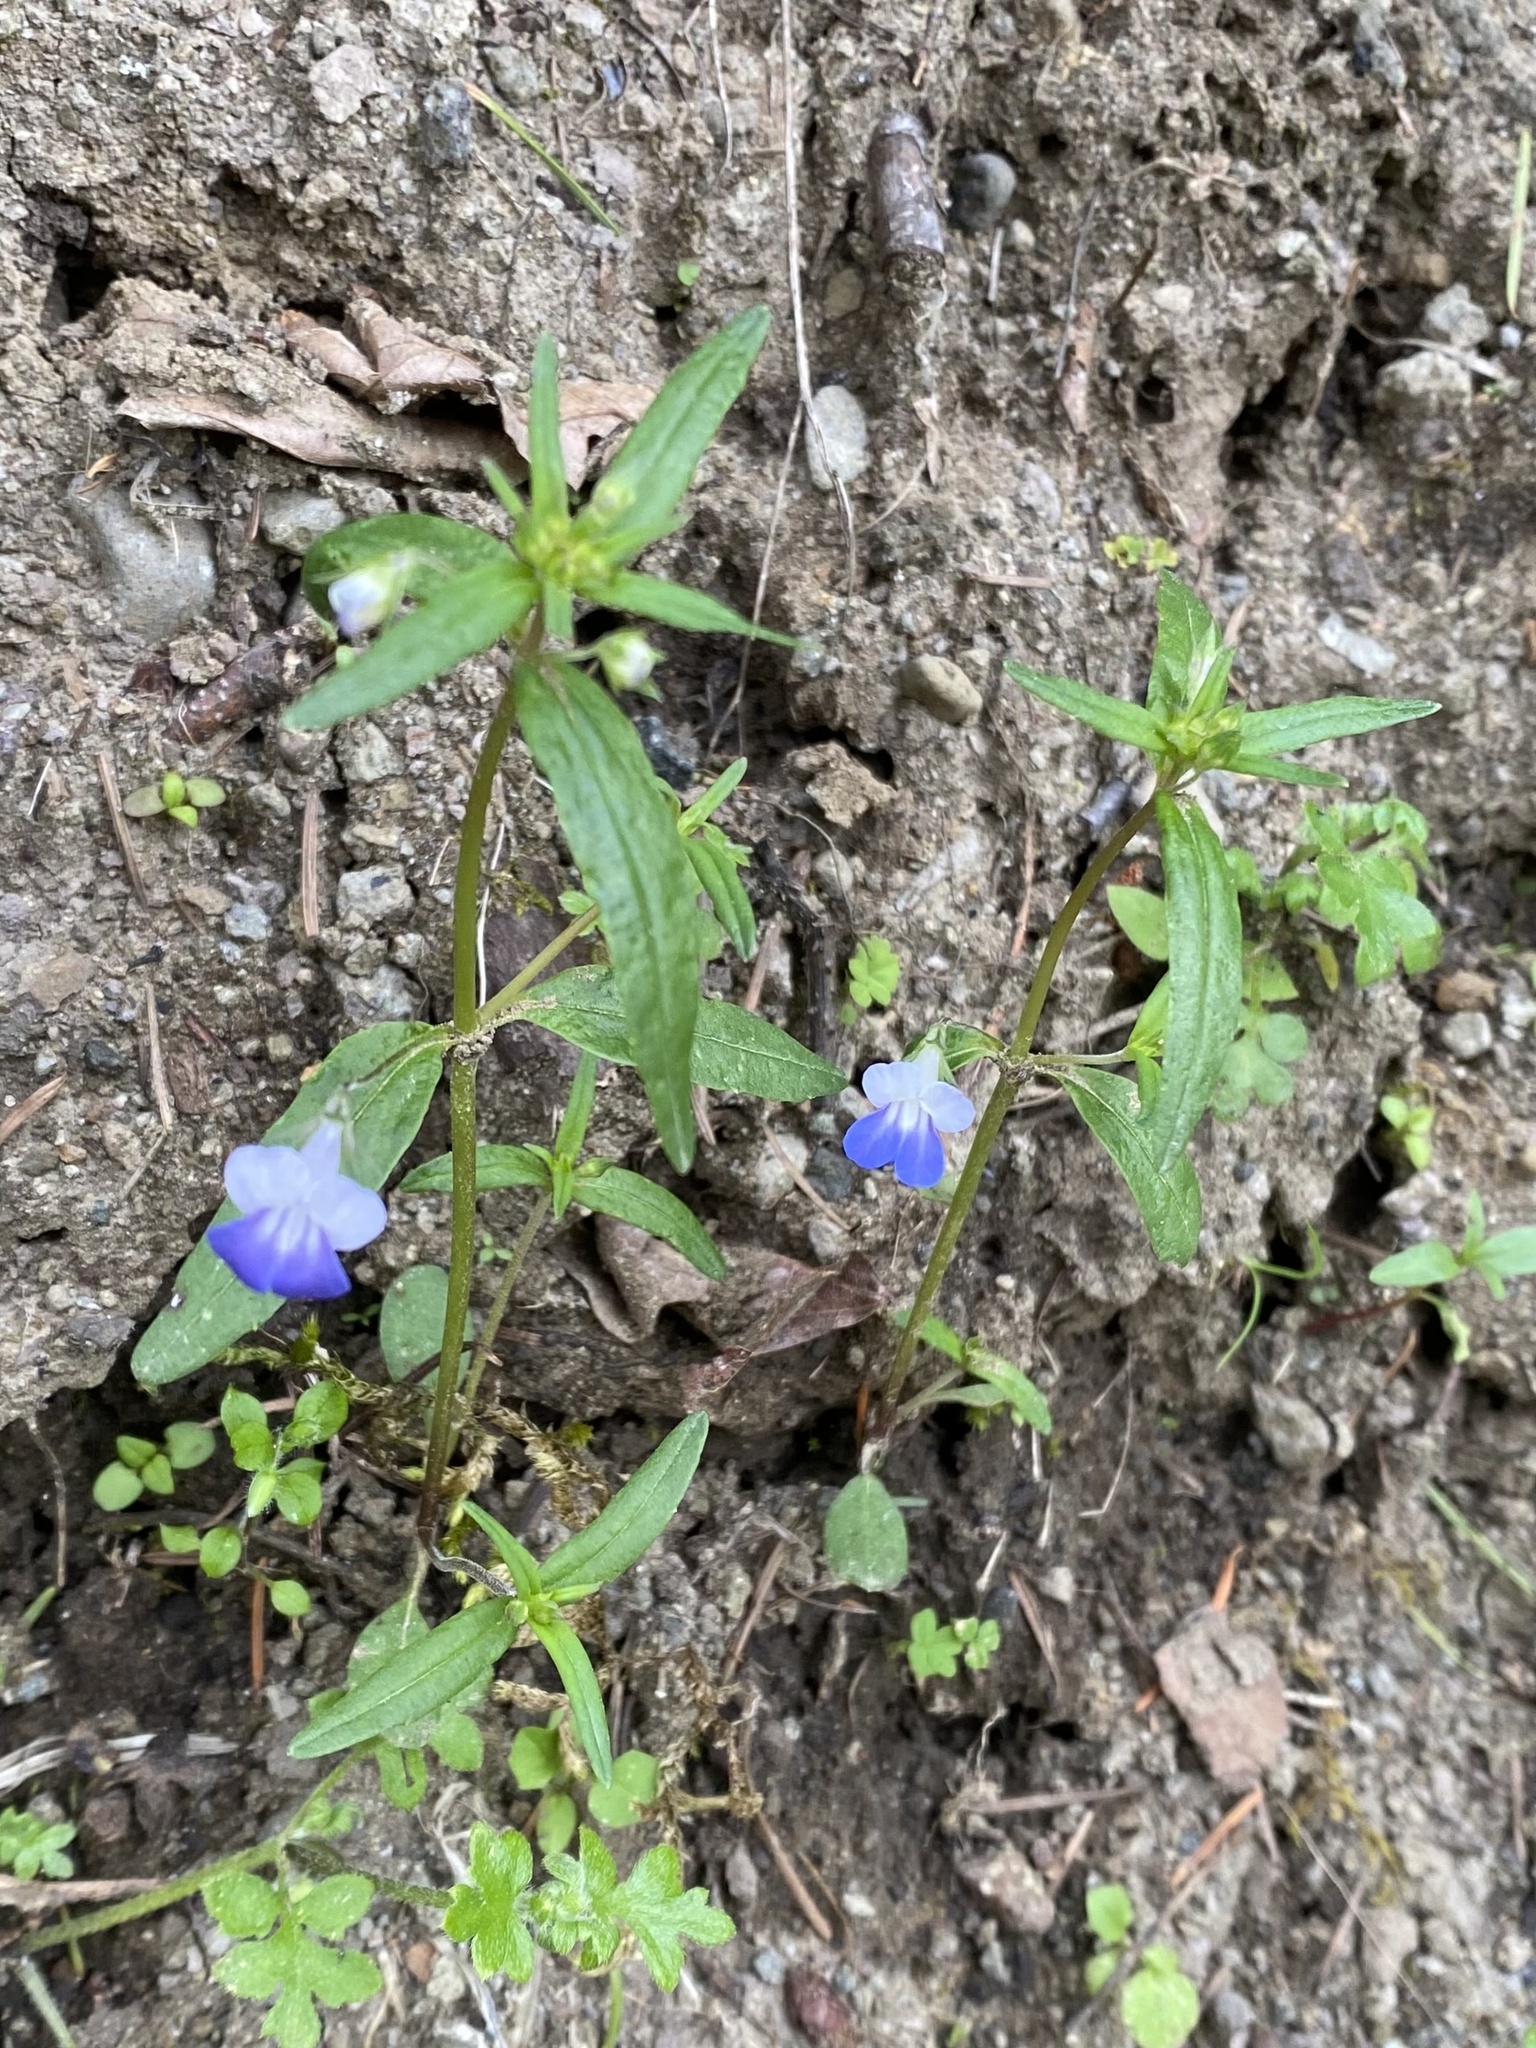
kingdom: Plantae
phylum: Tracheophyta
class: Magnoliopsida
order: Lamiales
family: Plantaginaceae
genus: Collinsia
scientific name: Collinsia grandiflora
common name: Large-flower blue-eyed-mary
